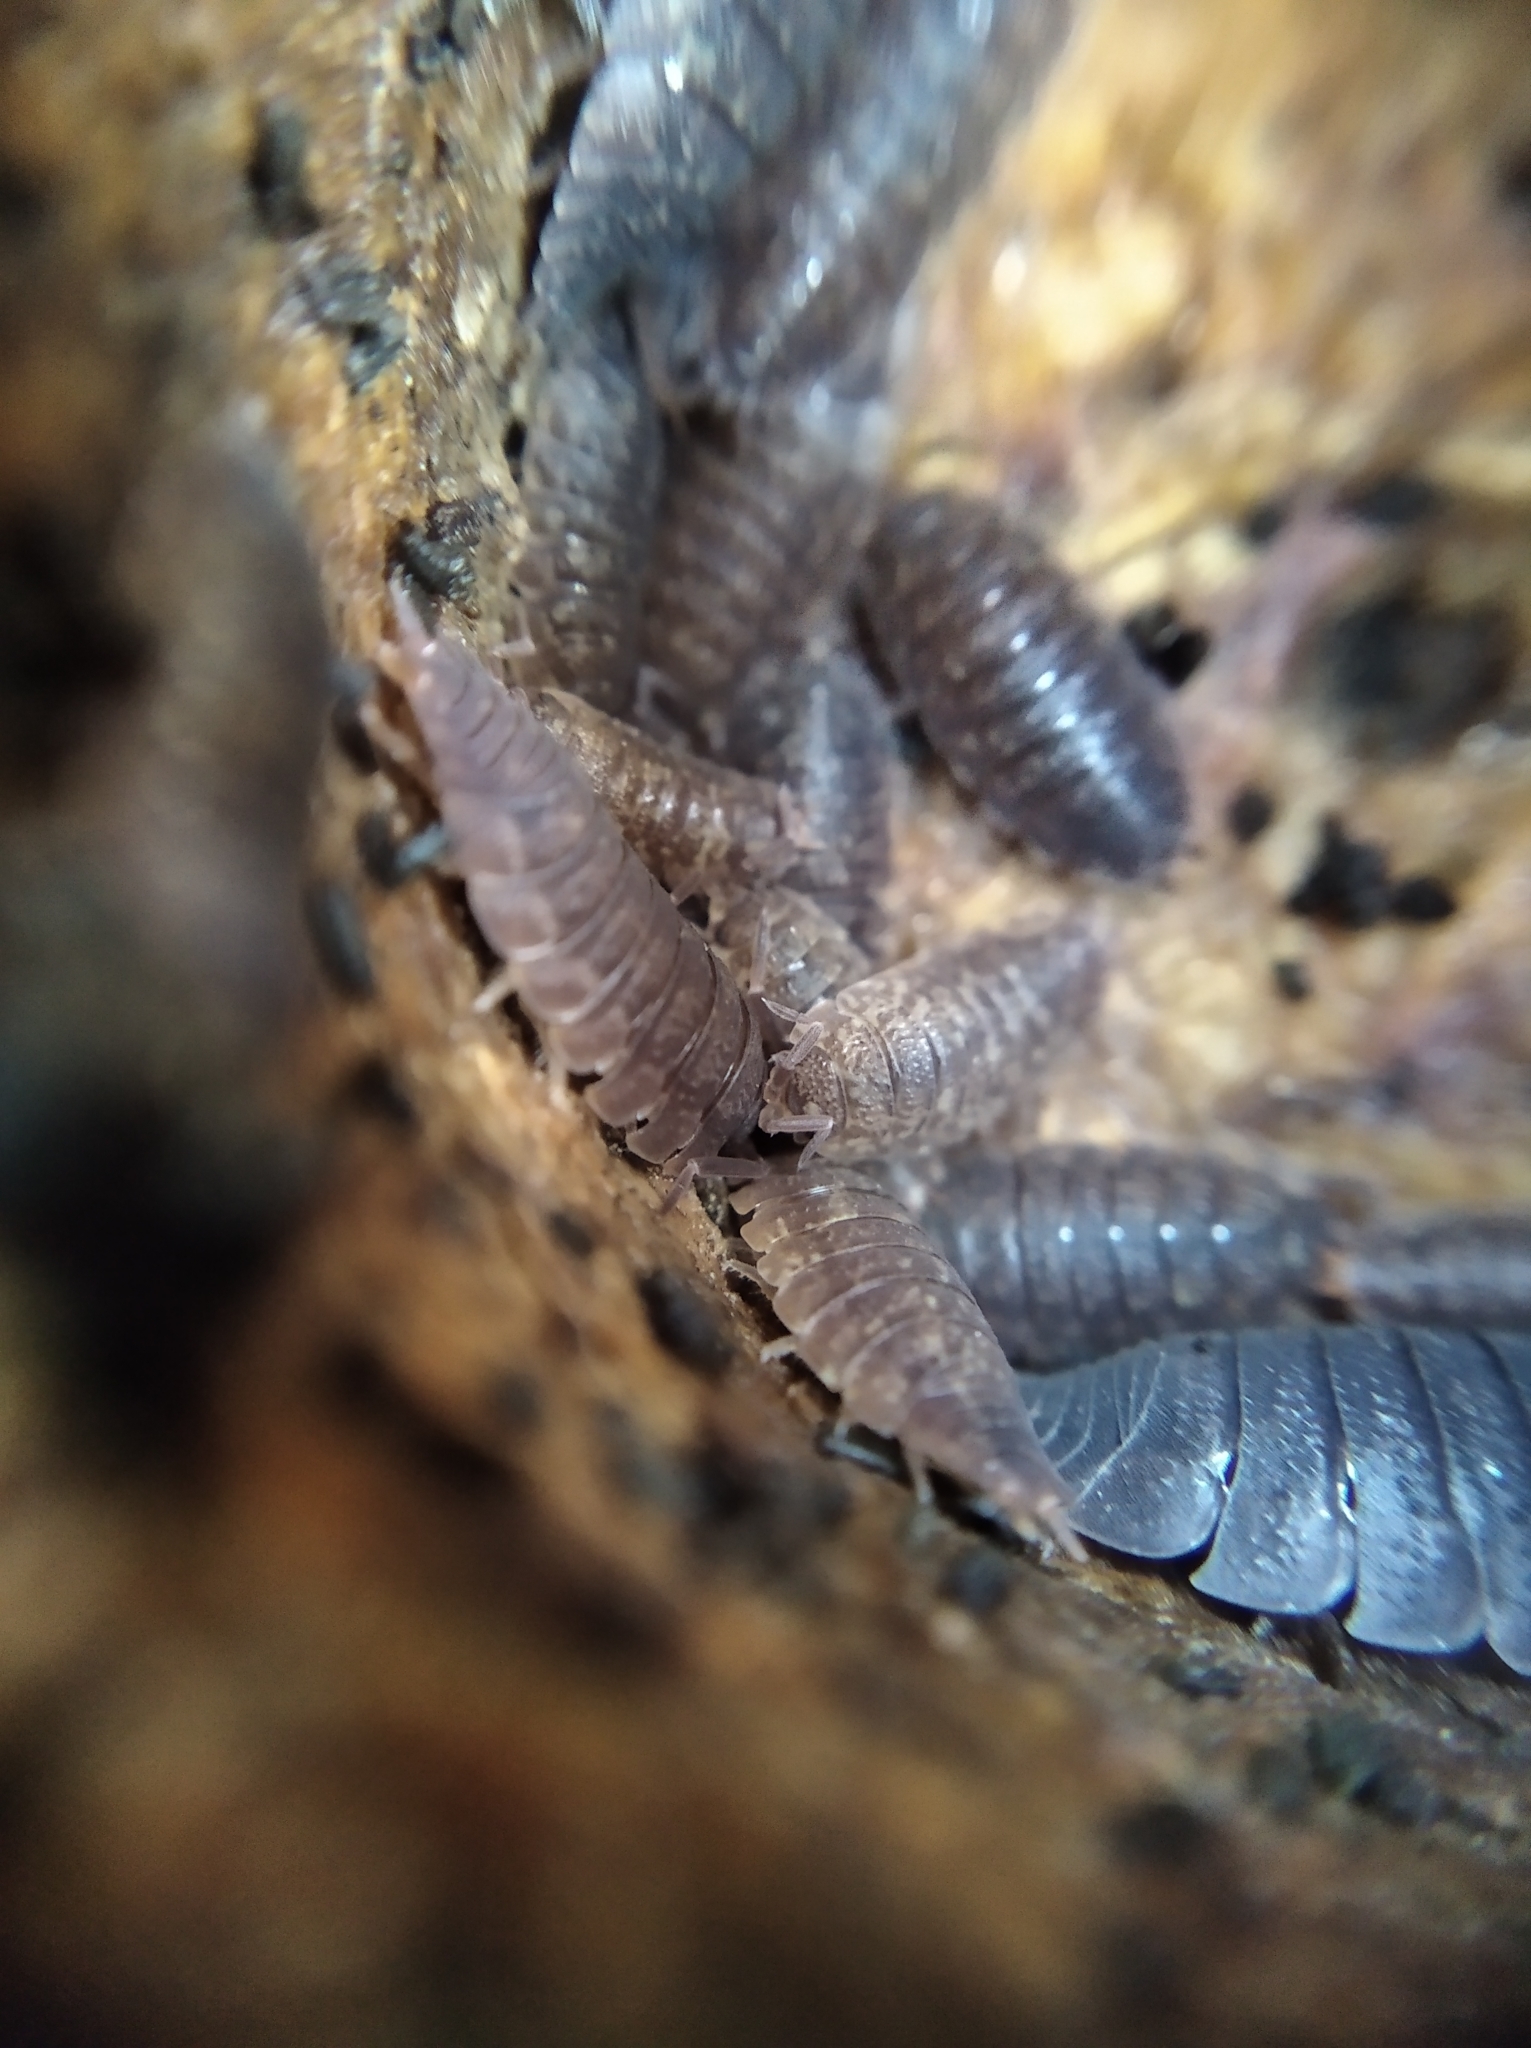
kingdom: Animalia
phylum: Arthropoda
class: Malacostraca
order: Isopoda
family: Porcellionidae
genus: Porcellio
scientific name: Porcellio scaber
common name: Common rough woodlouse
